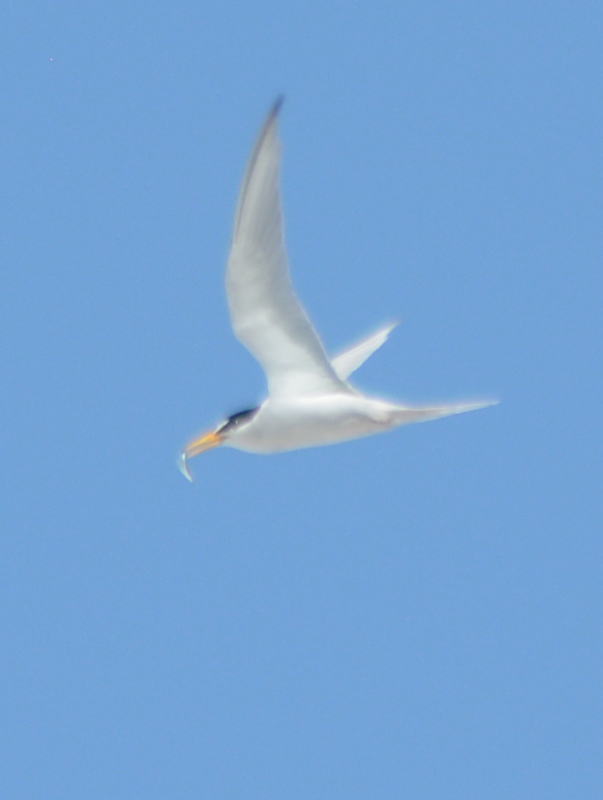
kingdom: Animalia
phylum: Chordata
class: Aves
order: Charadriiformes
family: Laridae
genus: Sternula
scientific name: Sternula antillarum
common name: Least tern
